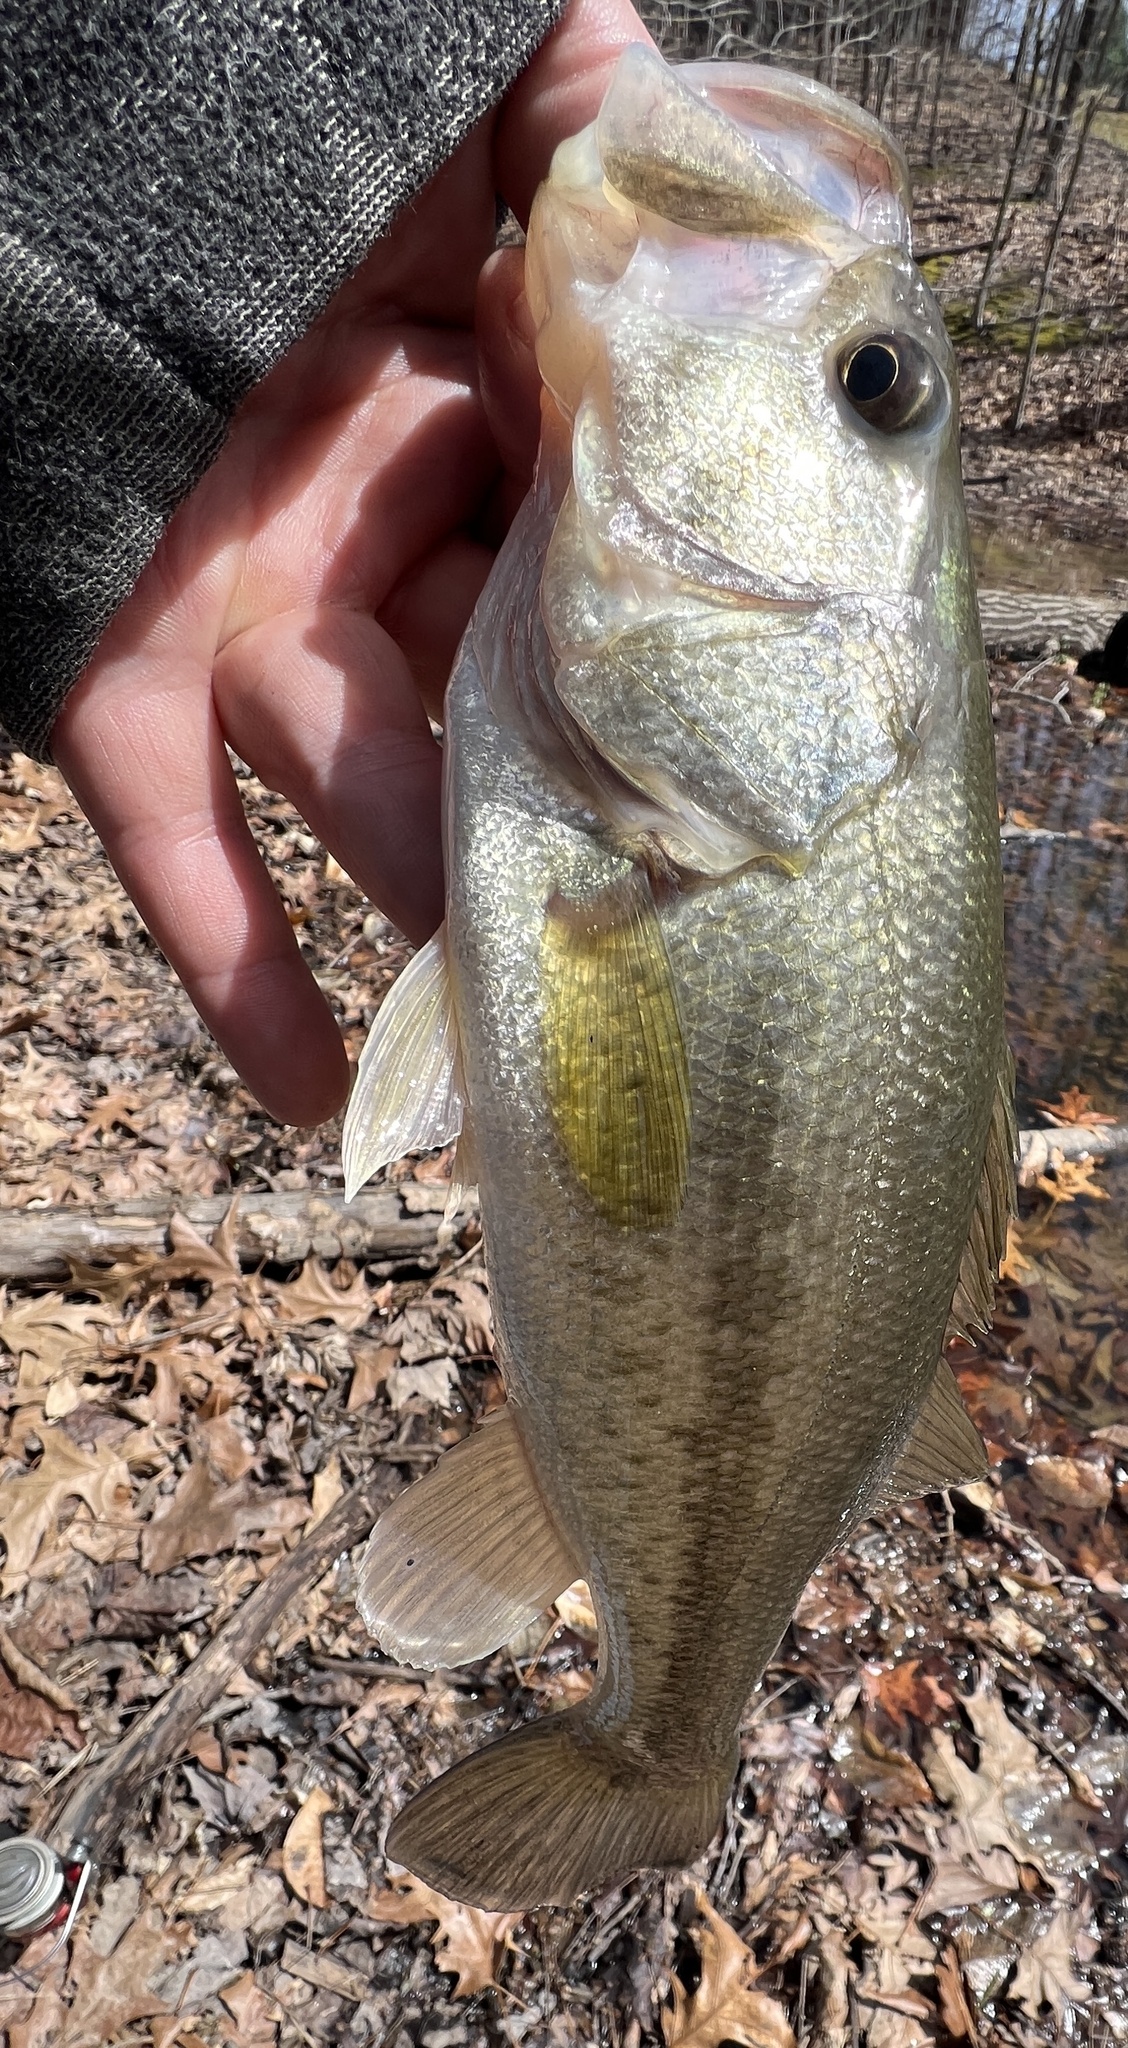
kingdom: Animalia
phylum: Chordata
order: Perciformes
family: Centrarchidae
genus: Micropterus
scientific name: Micropterus
